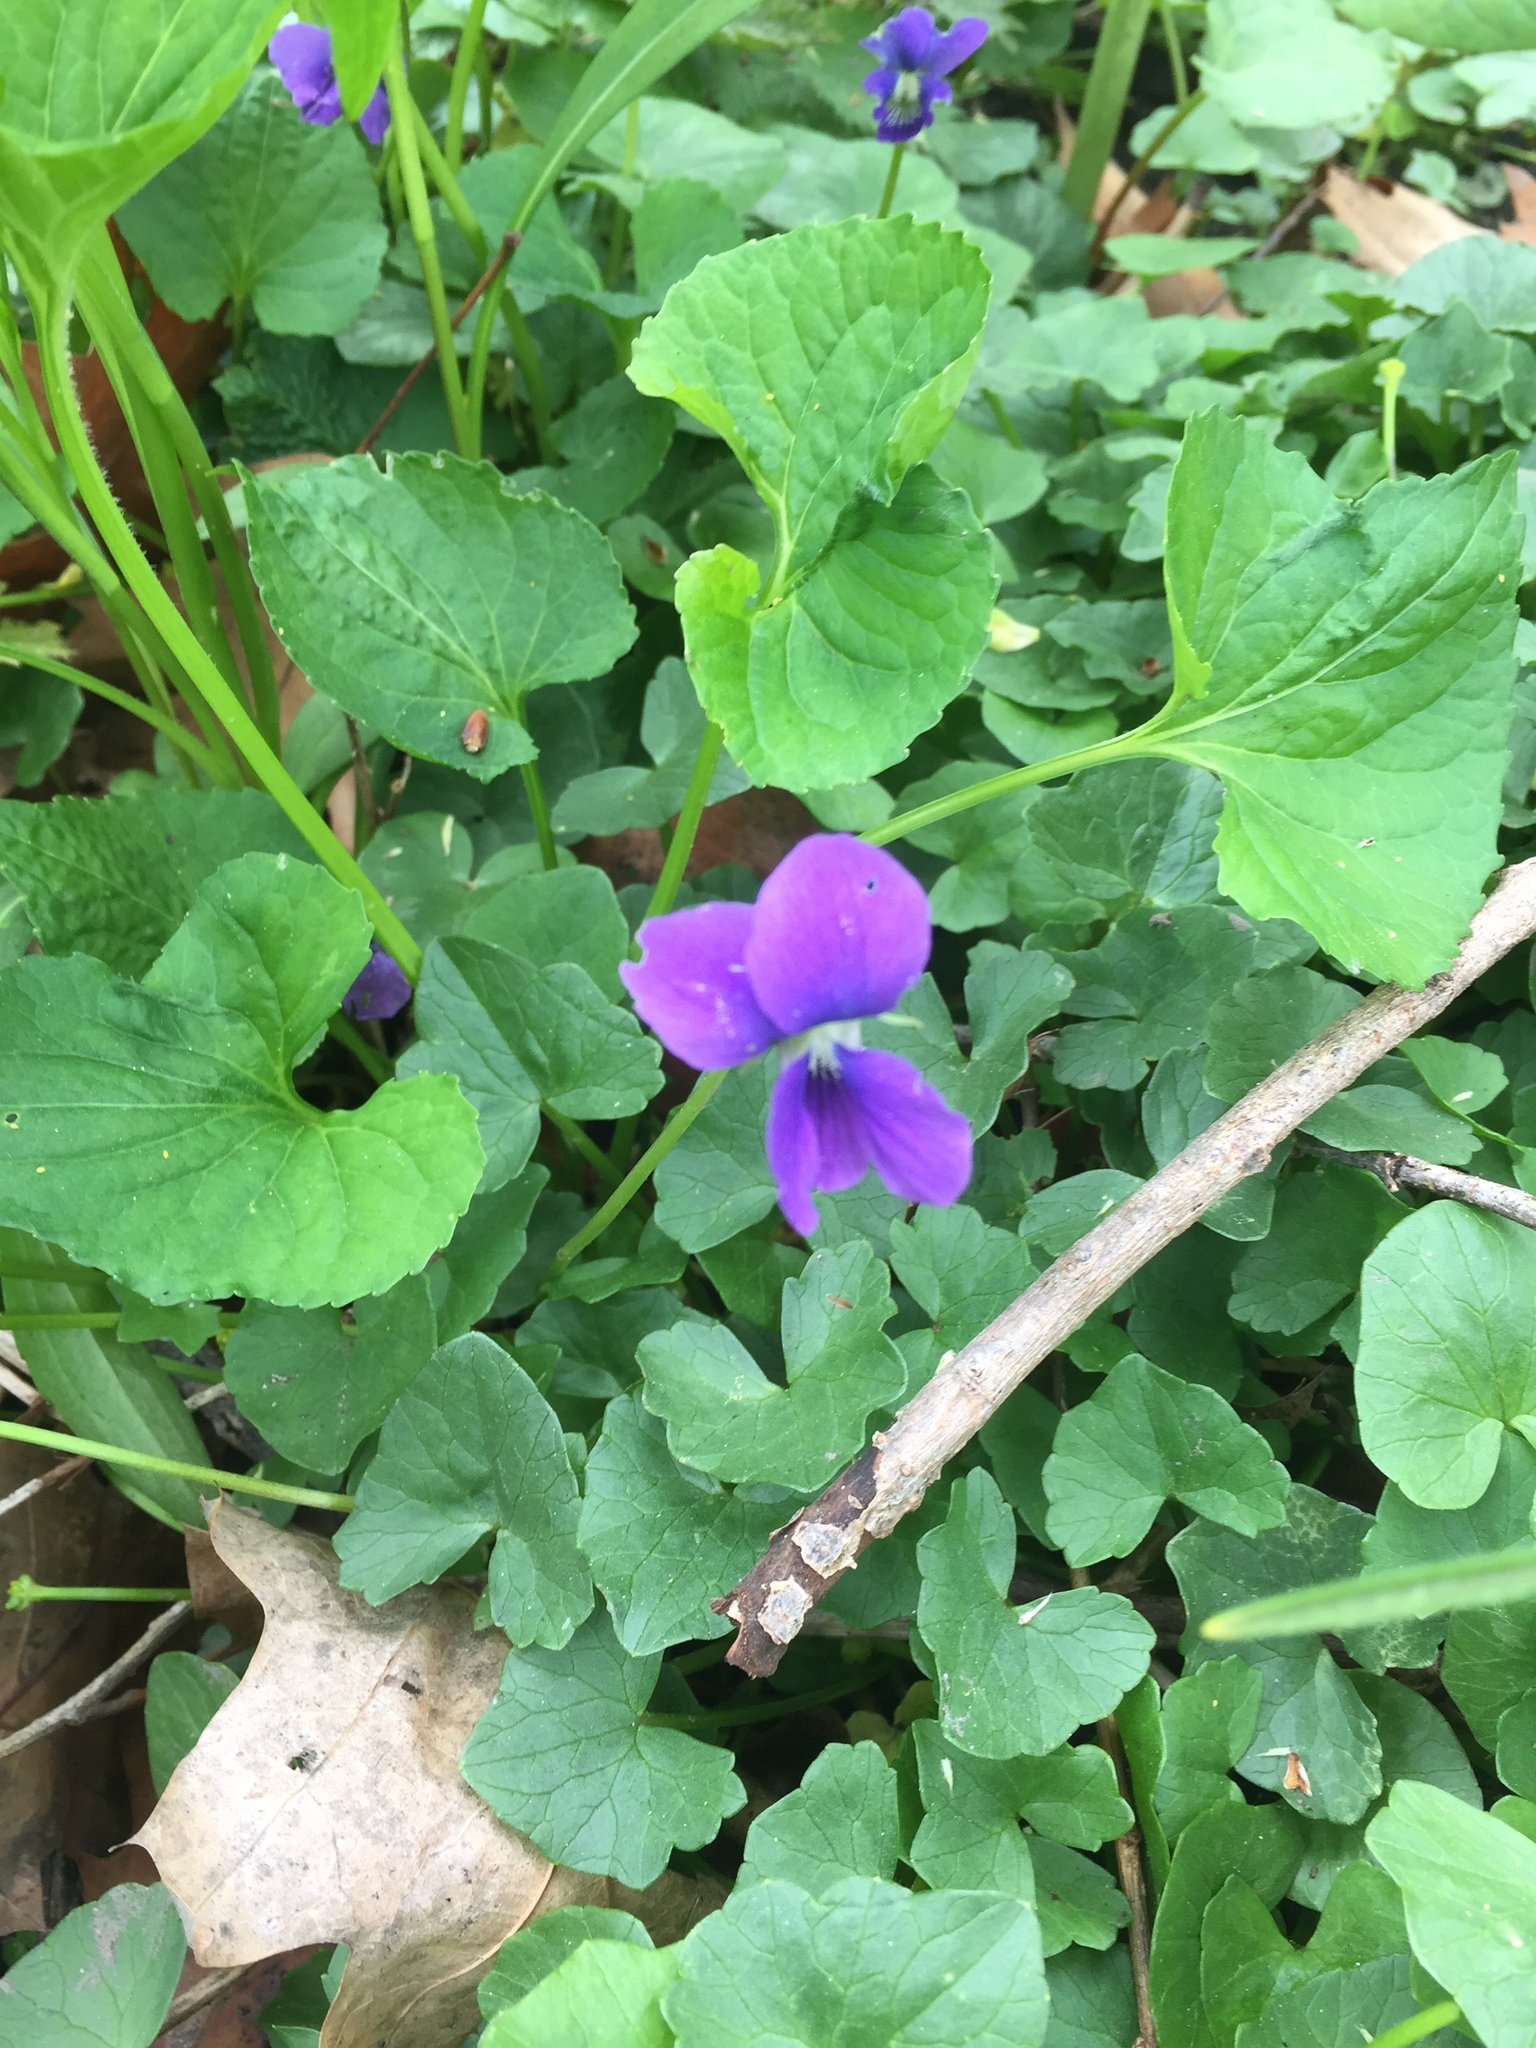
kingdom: Plantae
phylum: Tracheophyta
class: Magnoliopsida
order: Malpighiales
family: Violaceae
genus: Viola
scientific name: Viola sororia
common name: Dooryard violet
